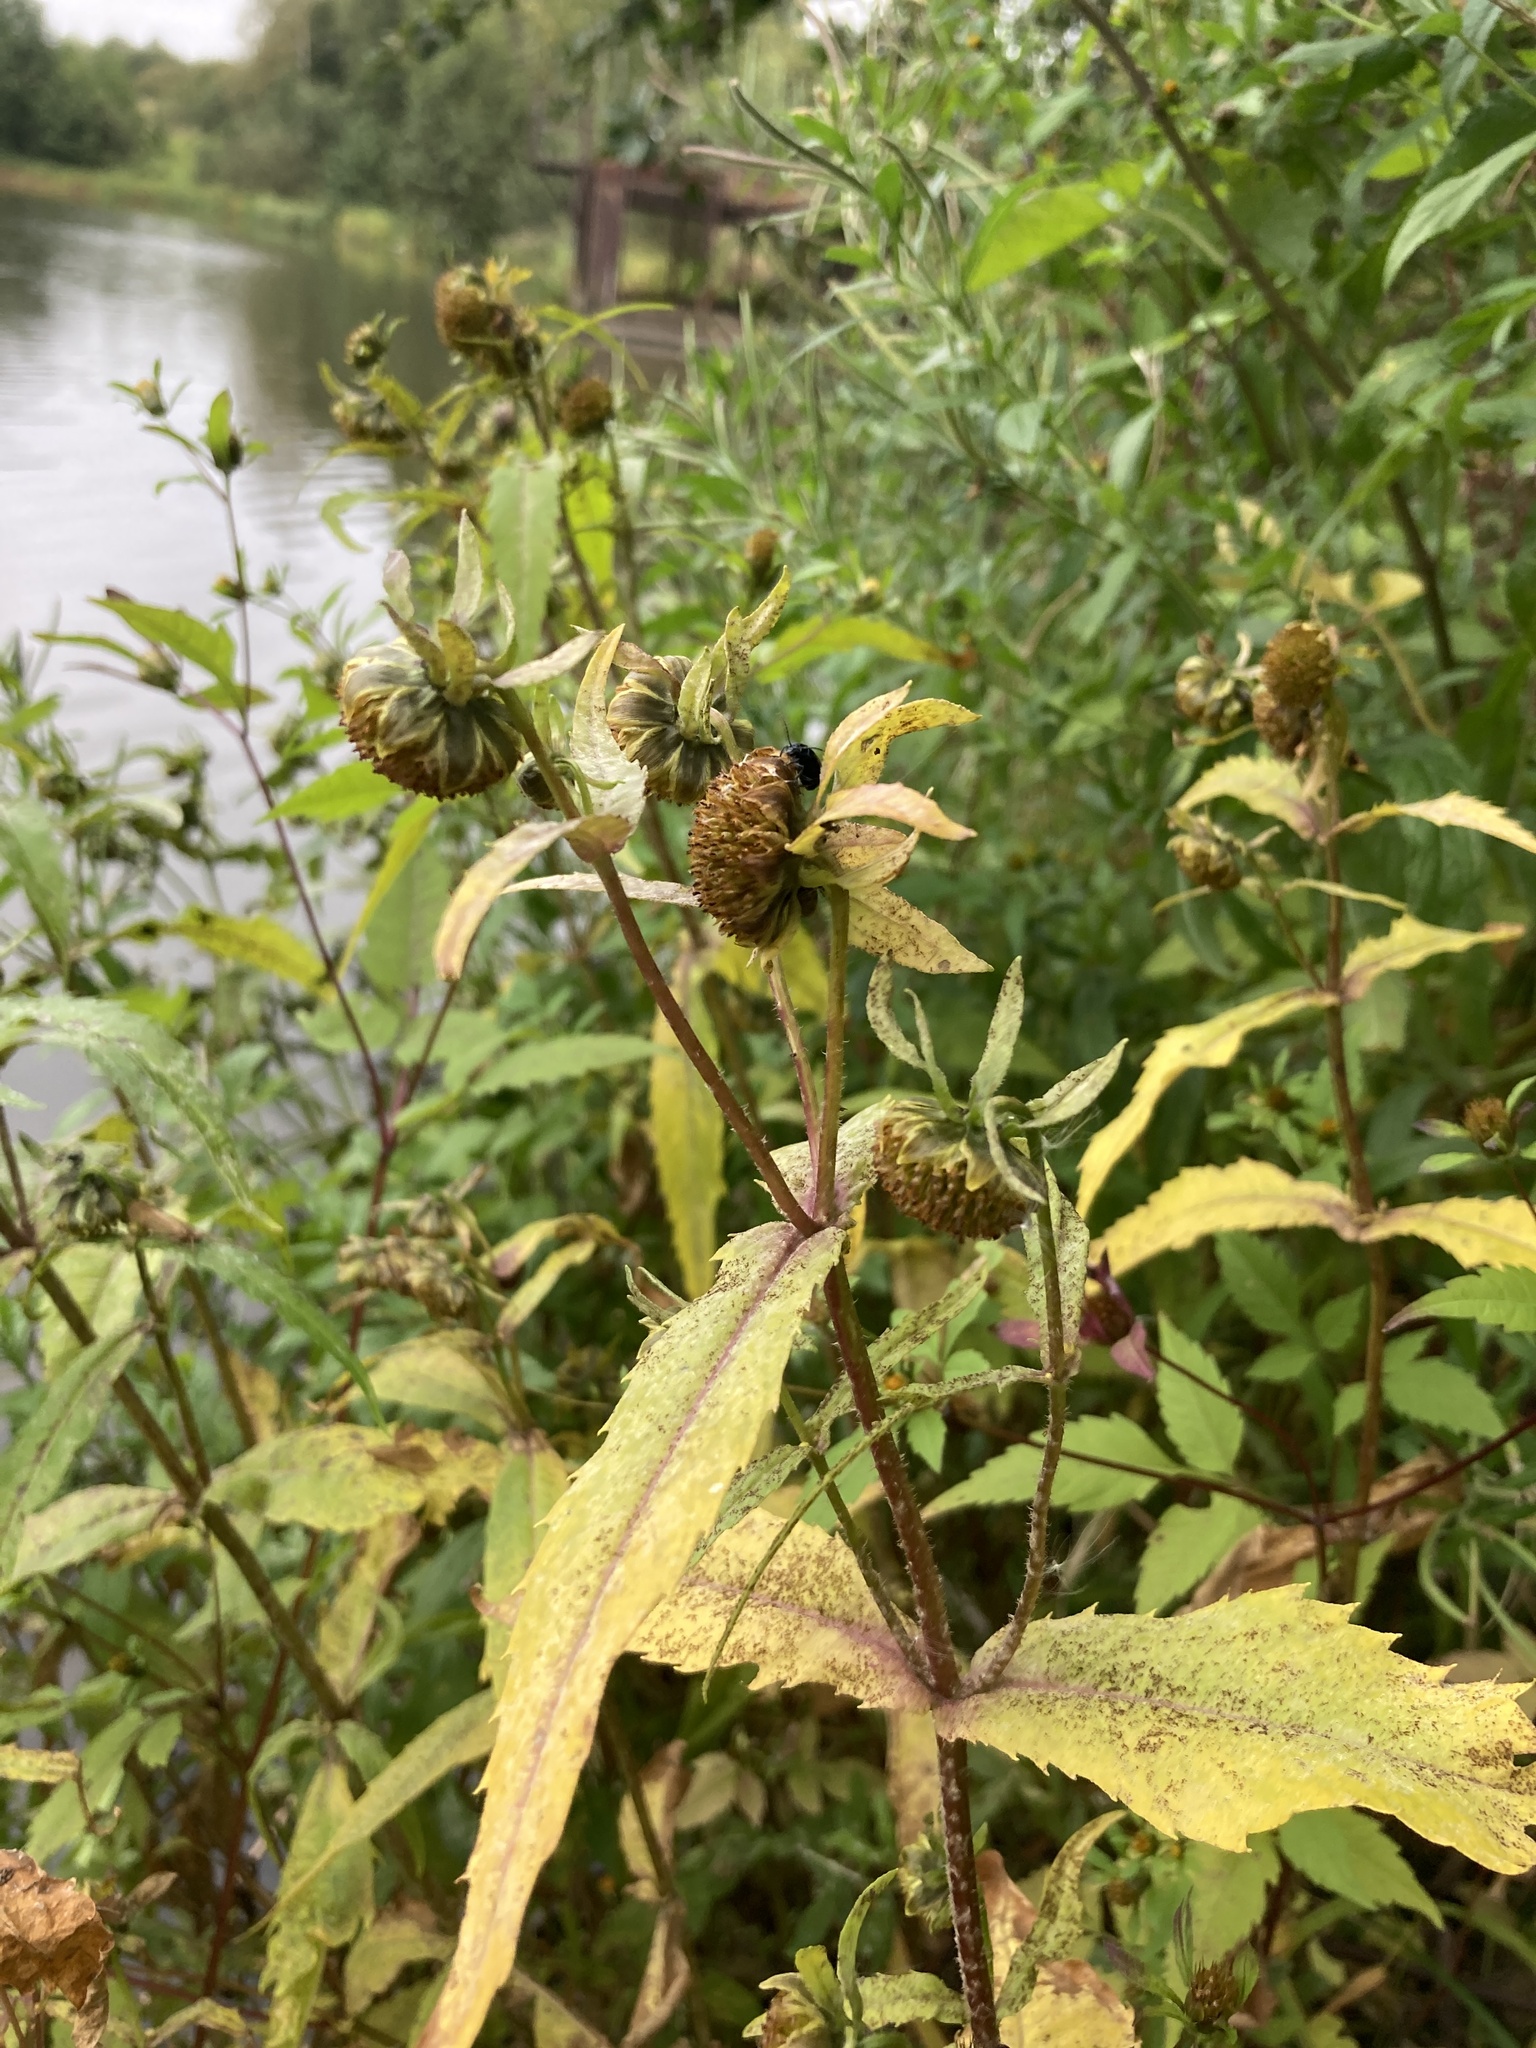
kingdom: Plantae
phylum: Tracheophyta
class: Magnoliopsida
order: Asterales
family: Asteraceae
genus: Bidens
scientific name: Bidens cernua
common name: Nodding bur-marigold
